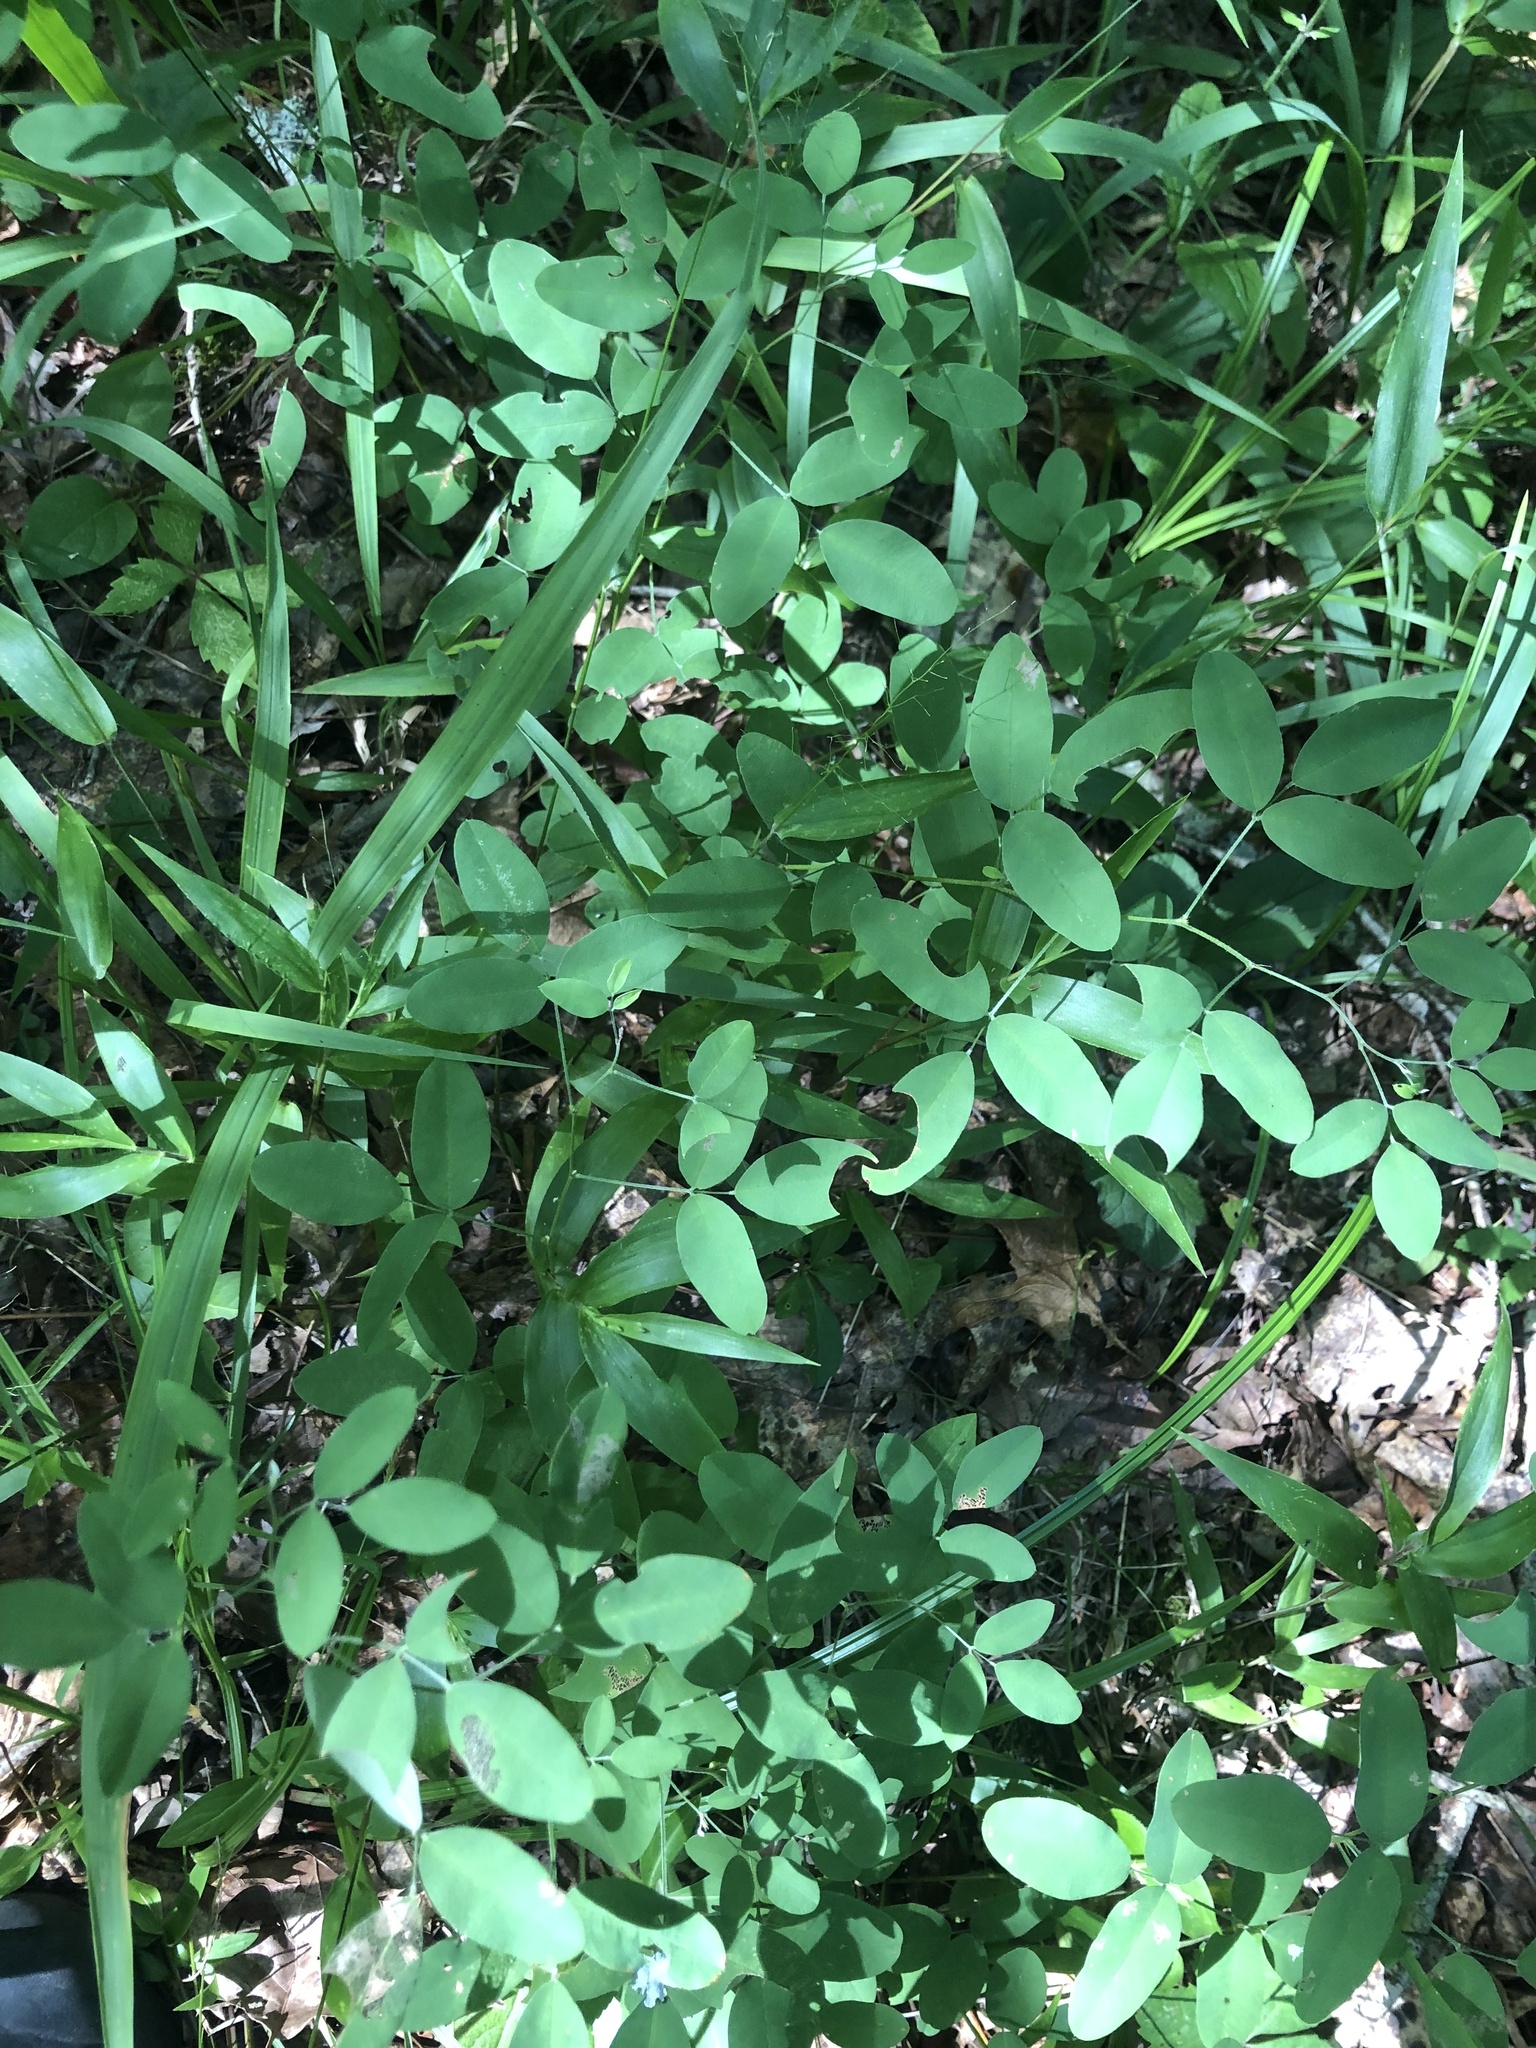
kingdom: Plantae
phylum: Tracheophyta
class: Magnoliopsida
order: Fabales
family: Fabaceae
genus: Lespedeza
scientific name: Lespedeza
